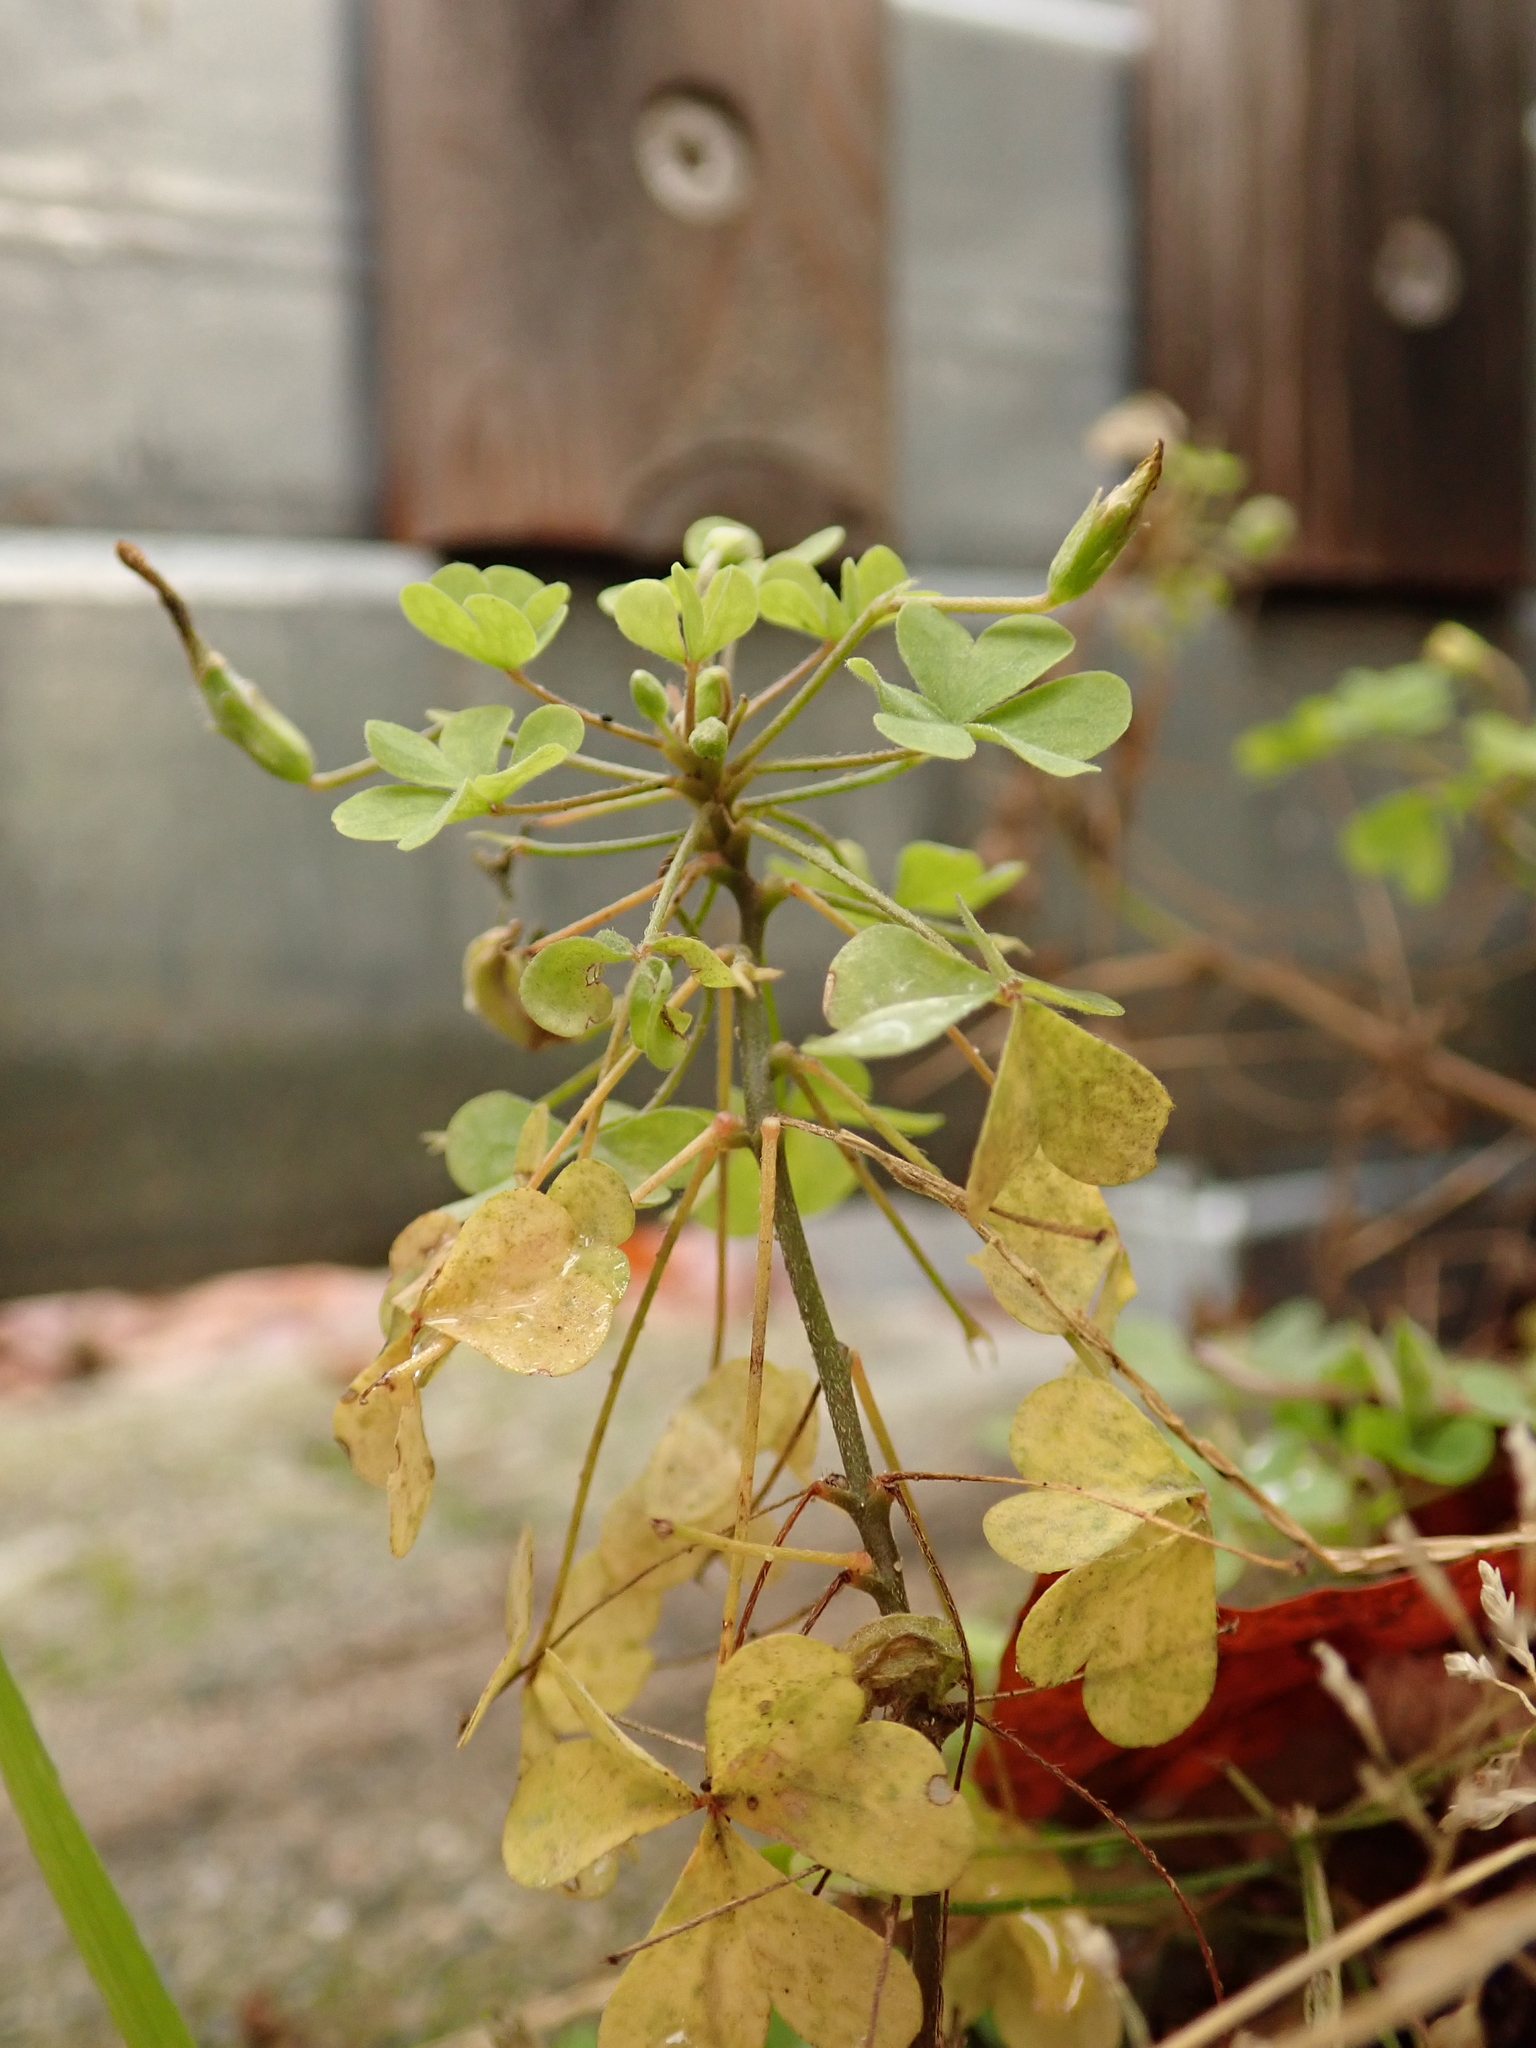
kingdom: Plantae
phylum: Tracheophyta
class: Magnoliopsida
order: Oxalidales
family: Oxalidaceae
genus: Oxalis
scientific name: Oxalis stricta
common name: Upright yellow-sorrel
